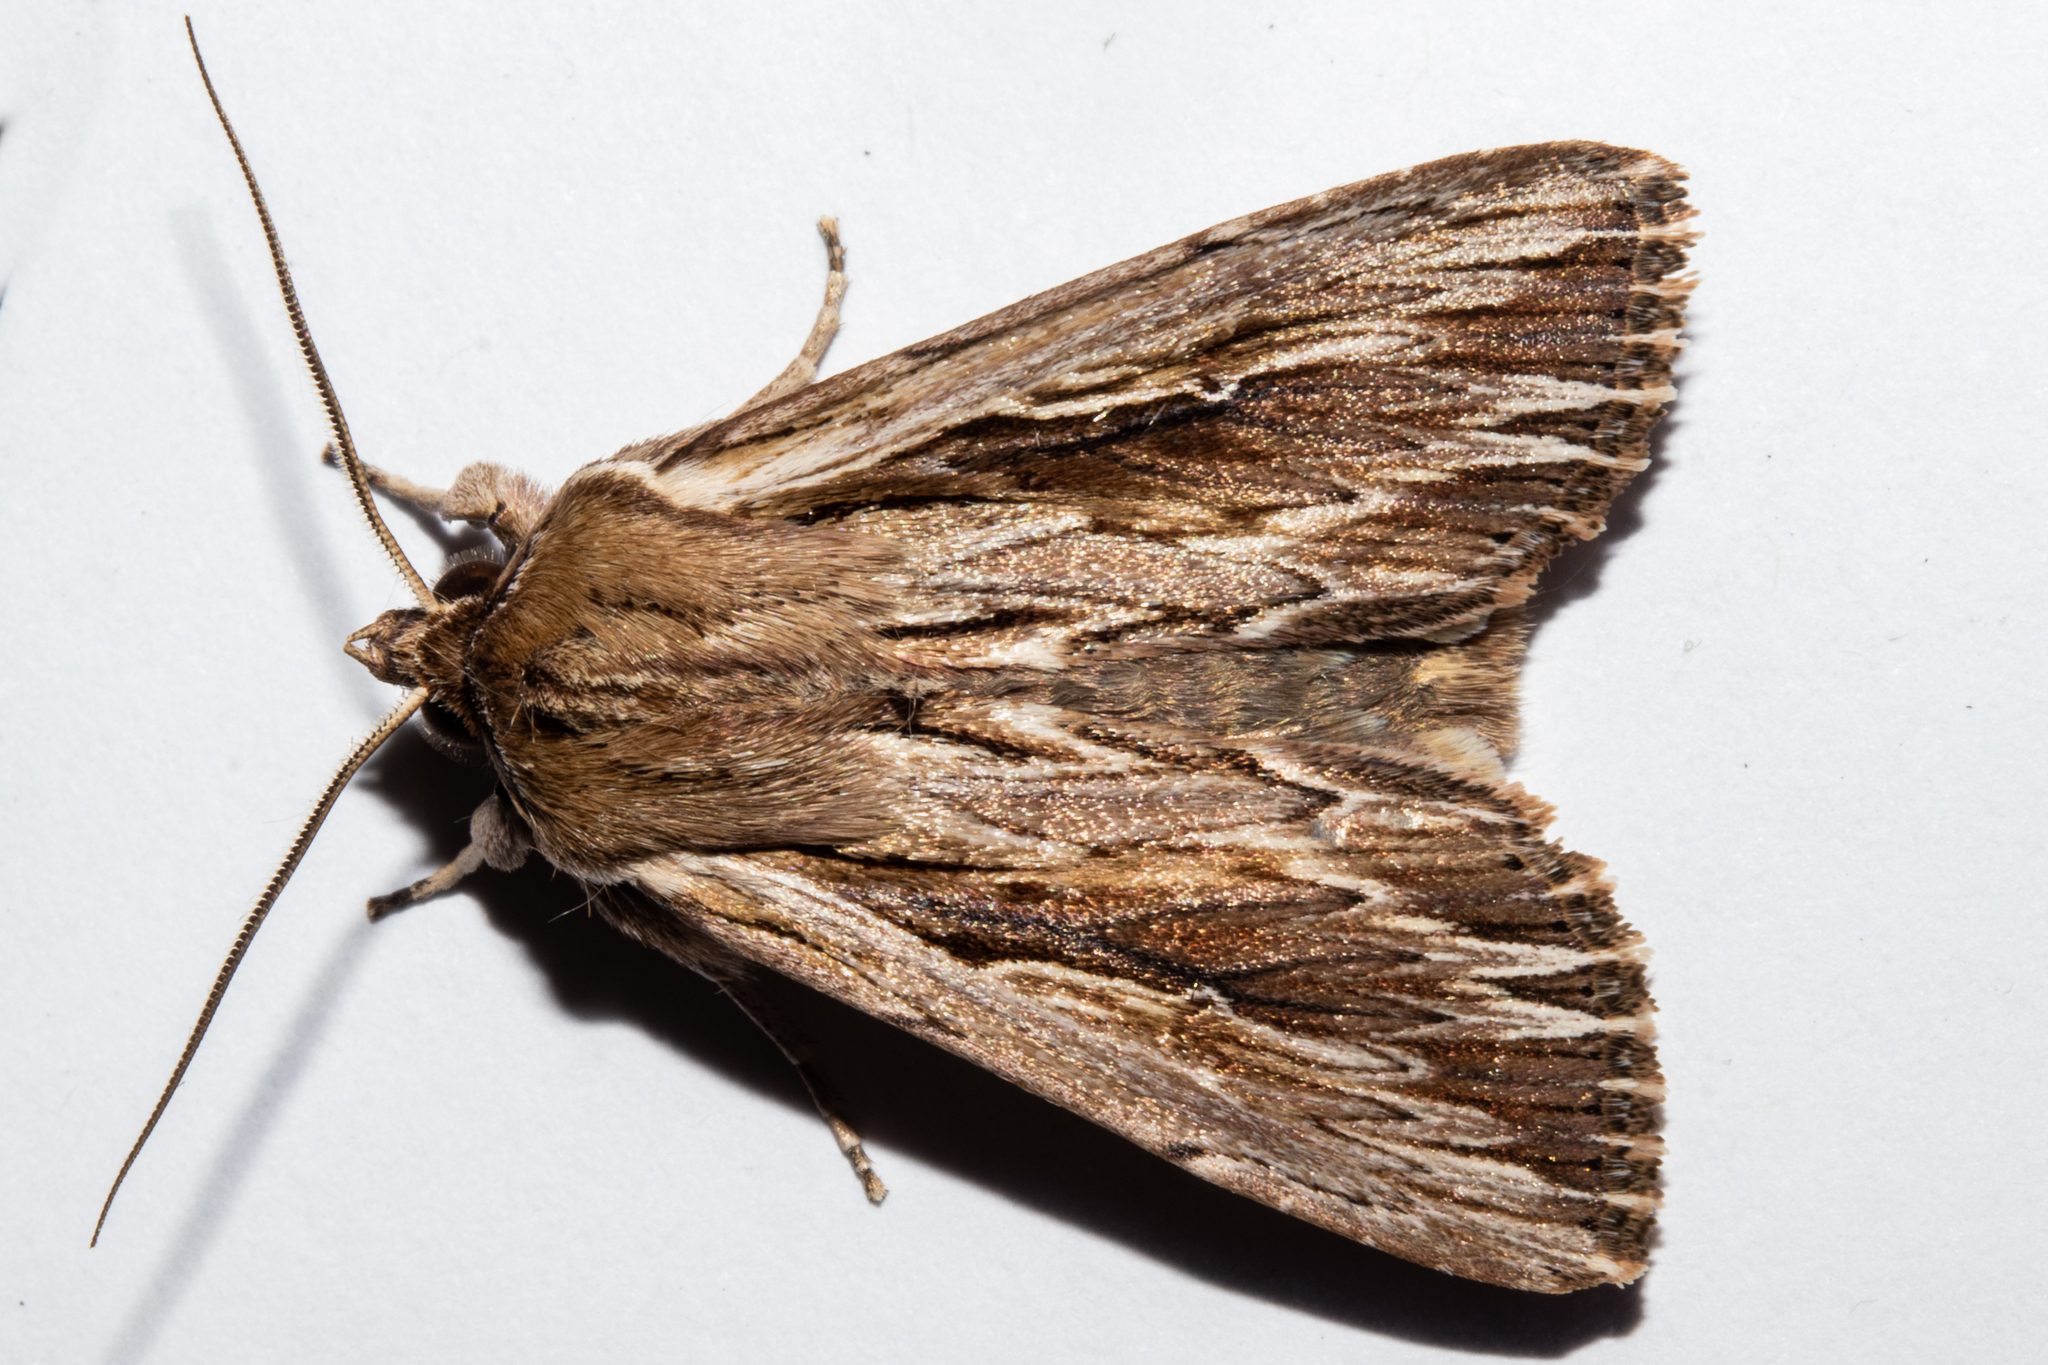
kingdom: Animalia
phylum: Arthropoda
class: Insecta
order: Lepidoptera
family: Noctuidae
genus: Persectania
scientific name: Persectania aversa
